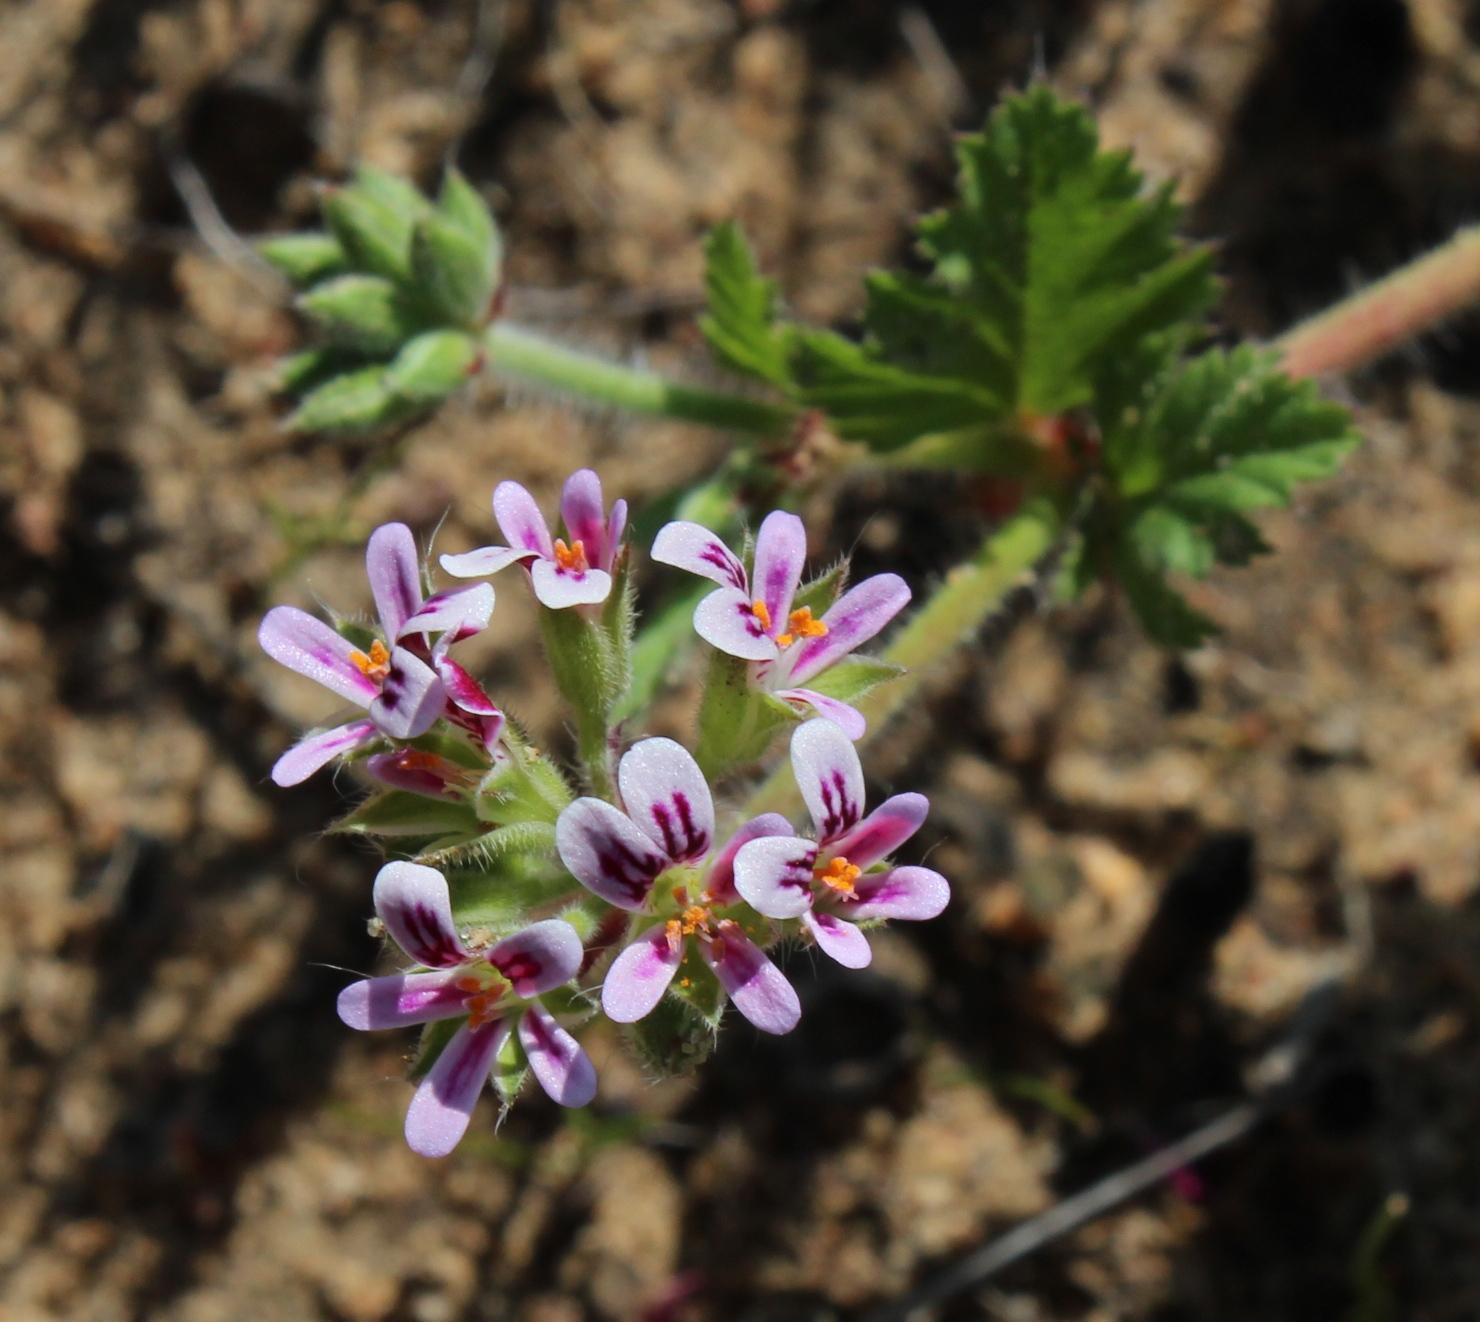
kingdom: Plantae
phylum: Tracheophyta
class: Magnoliopsida
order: Geraniales
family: Geraniaceae
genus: Pelargonium
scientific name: Pelargonium althaeoides
